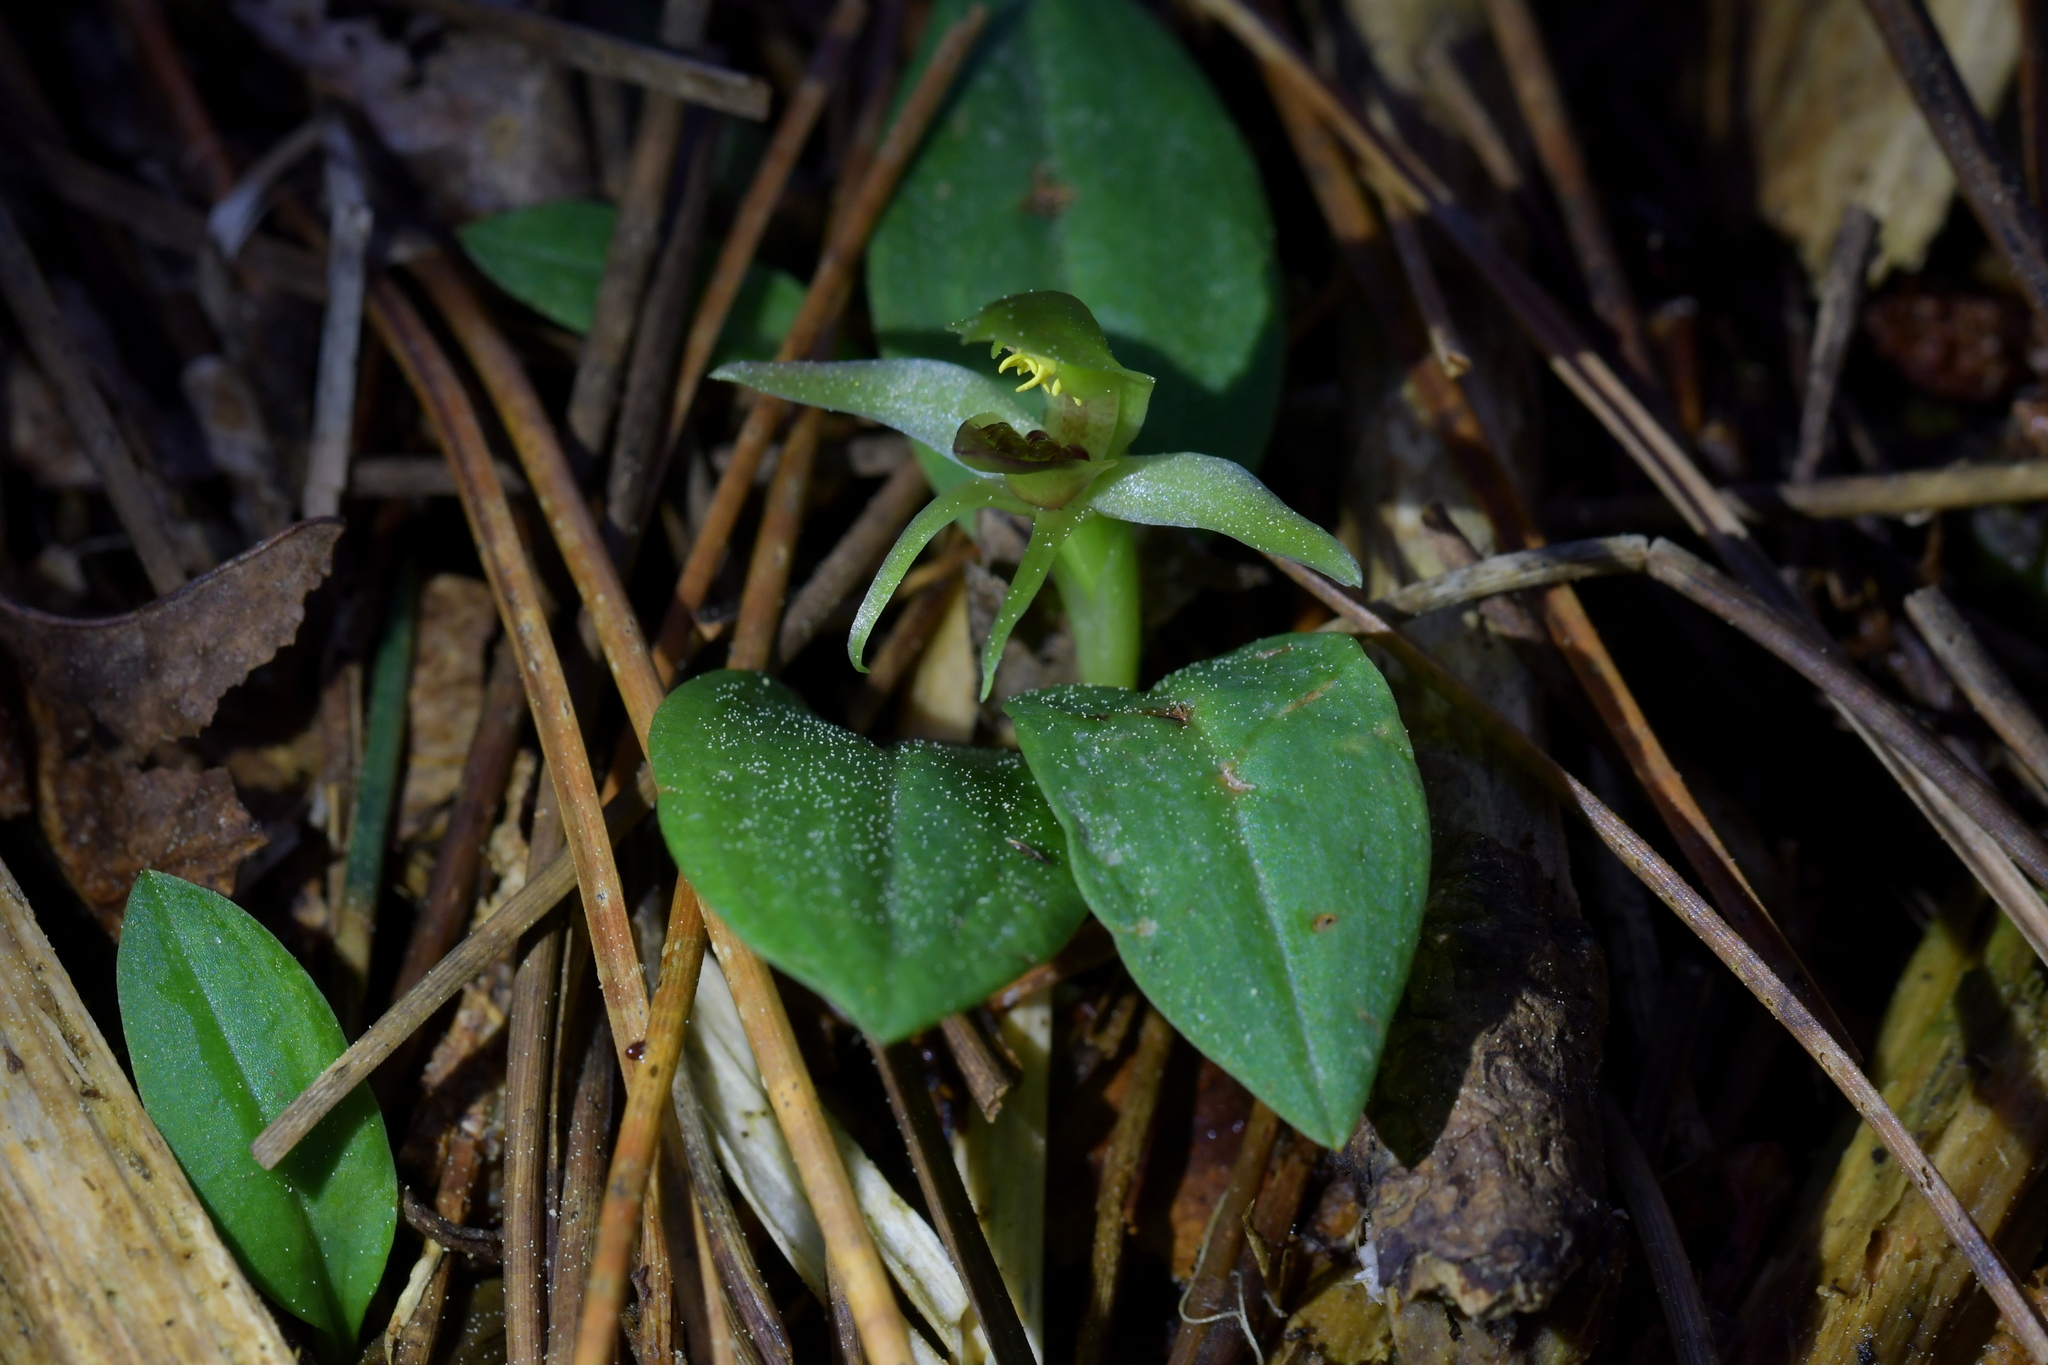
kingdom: Plantae
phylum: Tracheophyta
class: Liliopsida
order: Asparagales
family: Orchidaceae
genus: Chiloglottis
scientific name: Chiloglottis cornuta
